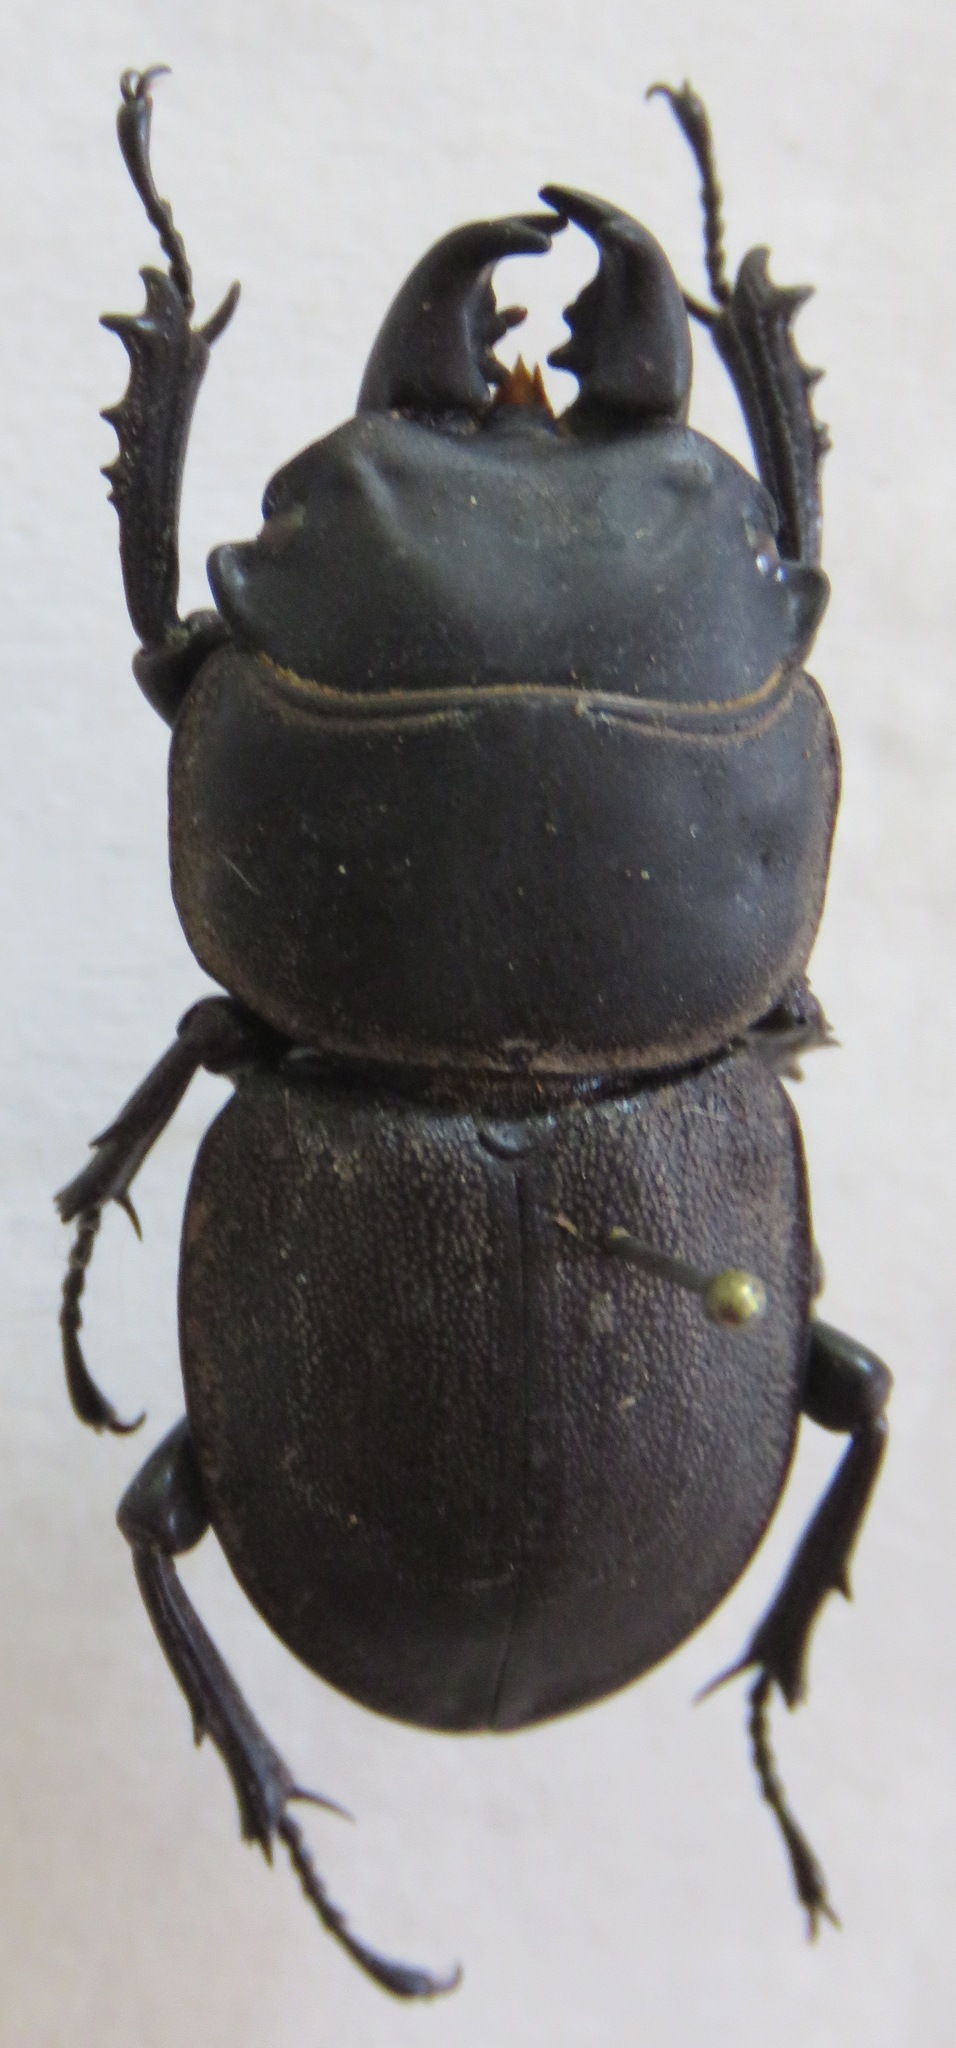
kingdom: Animalia
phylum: Arthropoda
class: Insecta
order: Coleoptera
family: Lucanidae
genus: Apterodorcus
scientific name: Apterodorcus bacchus
